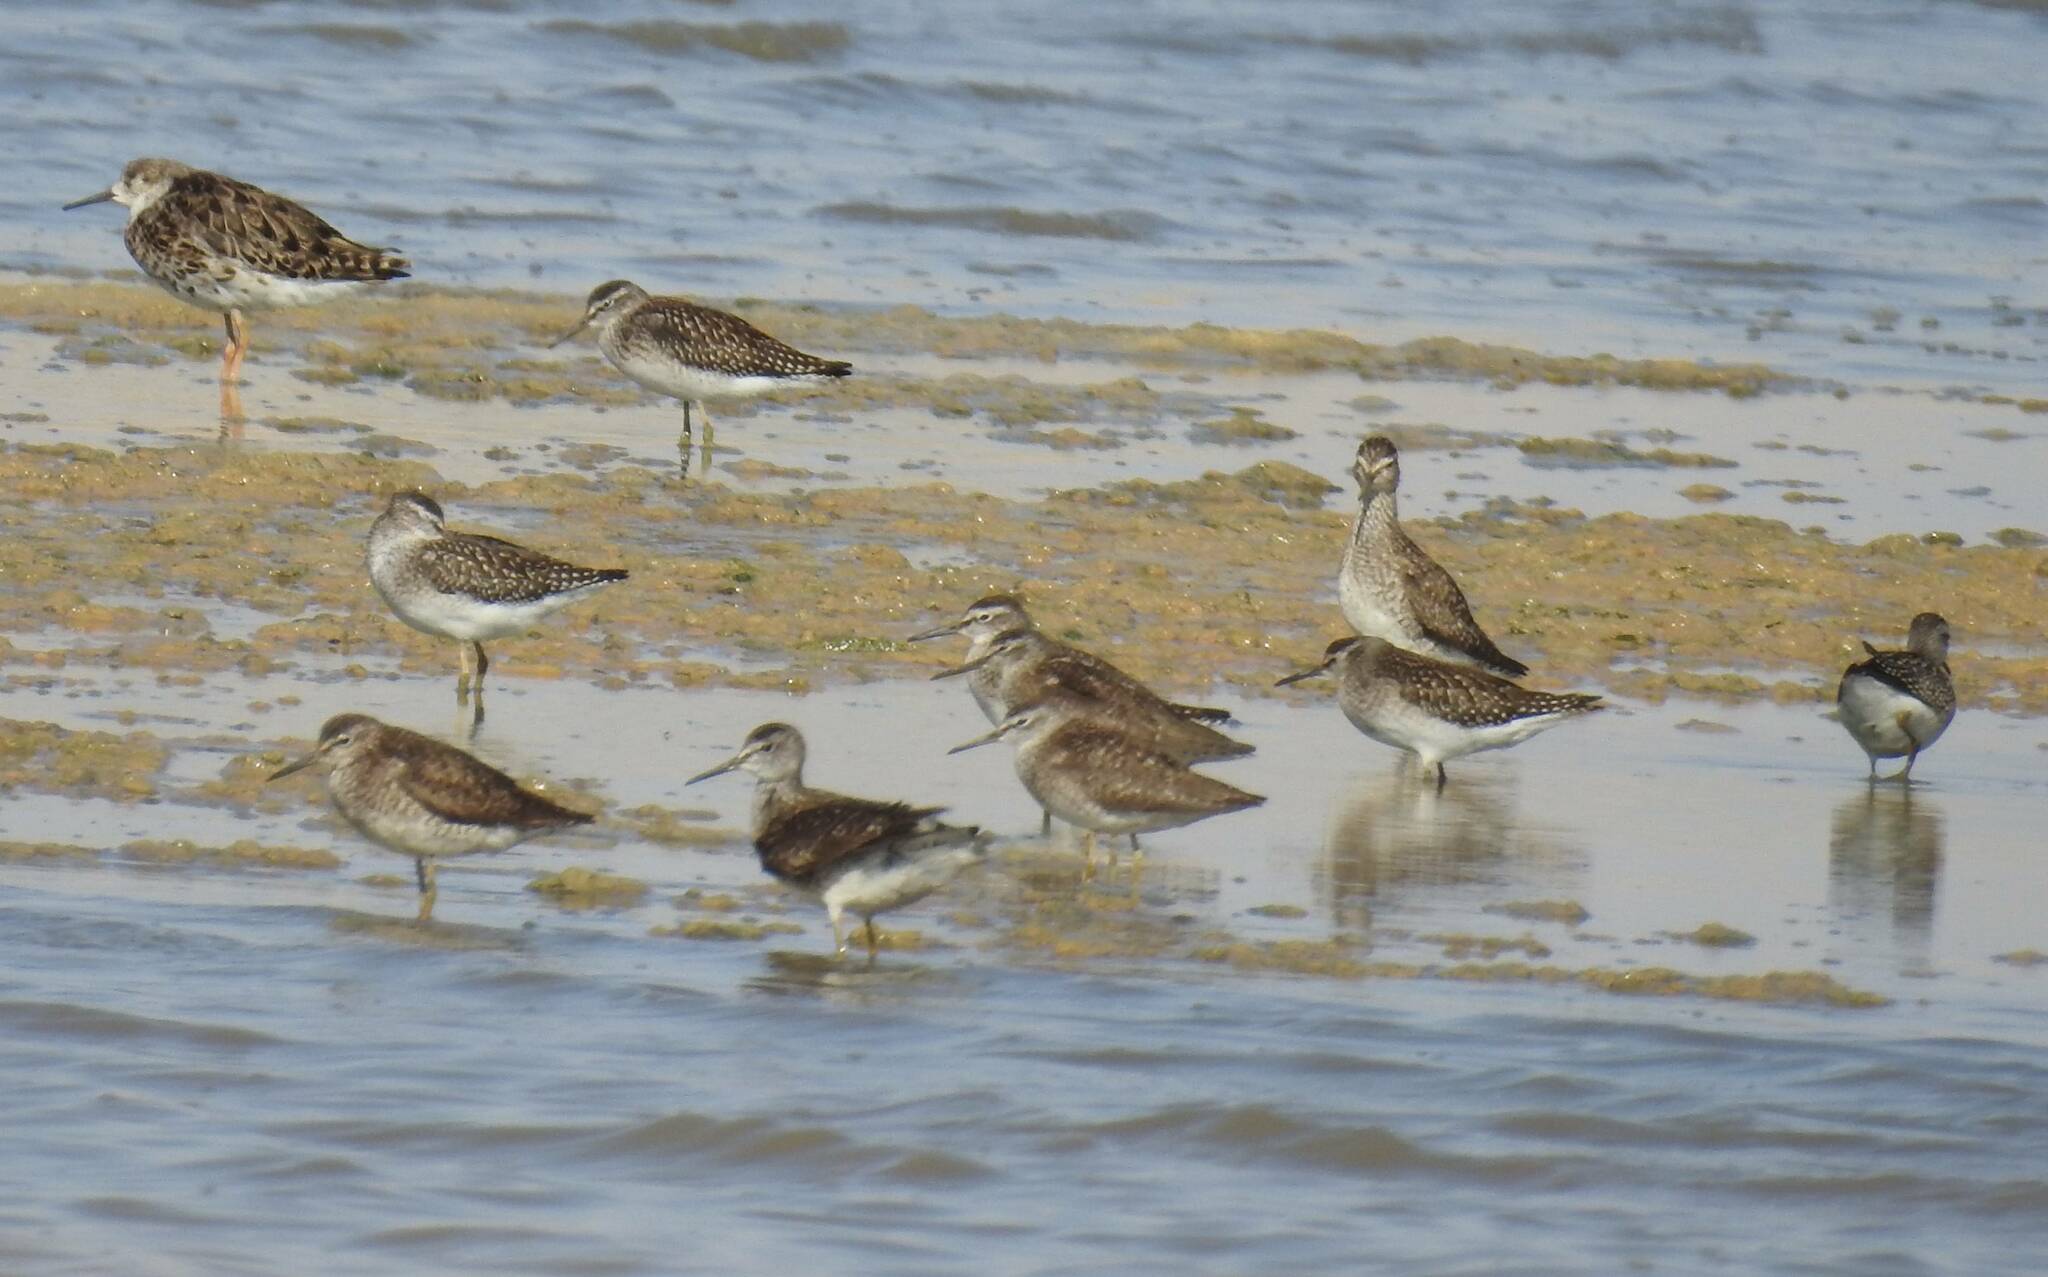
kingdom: Animalia
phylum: Chordata
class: Aves
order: Charadriiformes
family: Scolopacidae
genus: Tringa
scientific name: Tringa glareola
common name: Wood sandpiper
